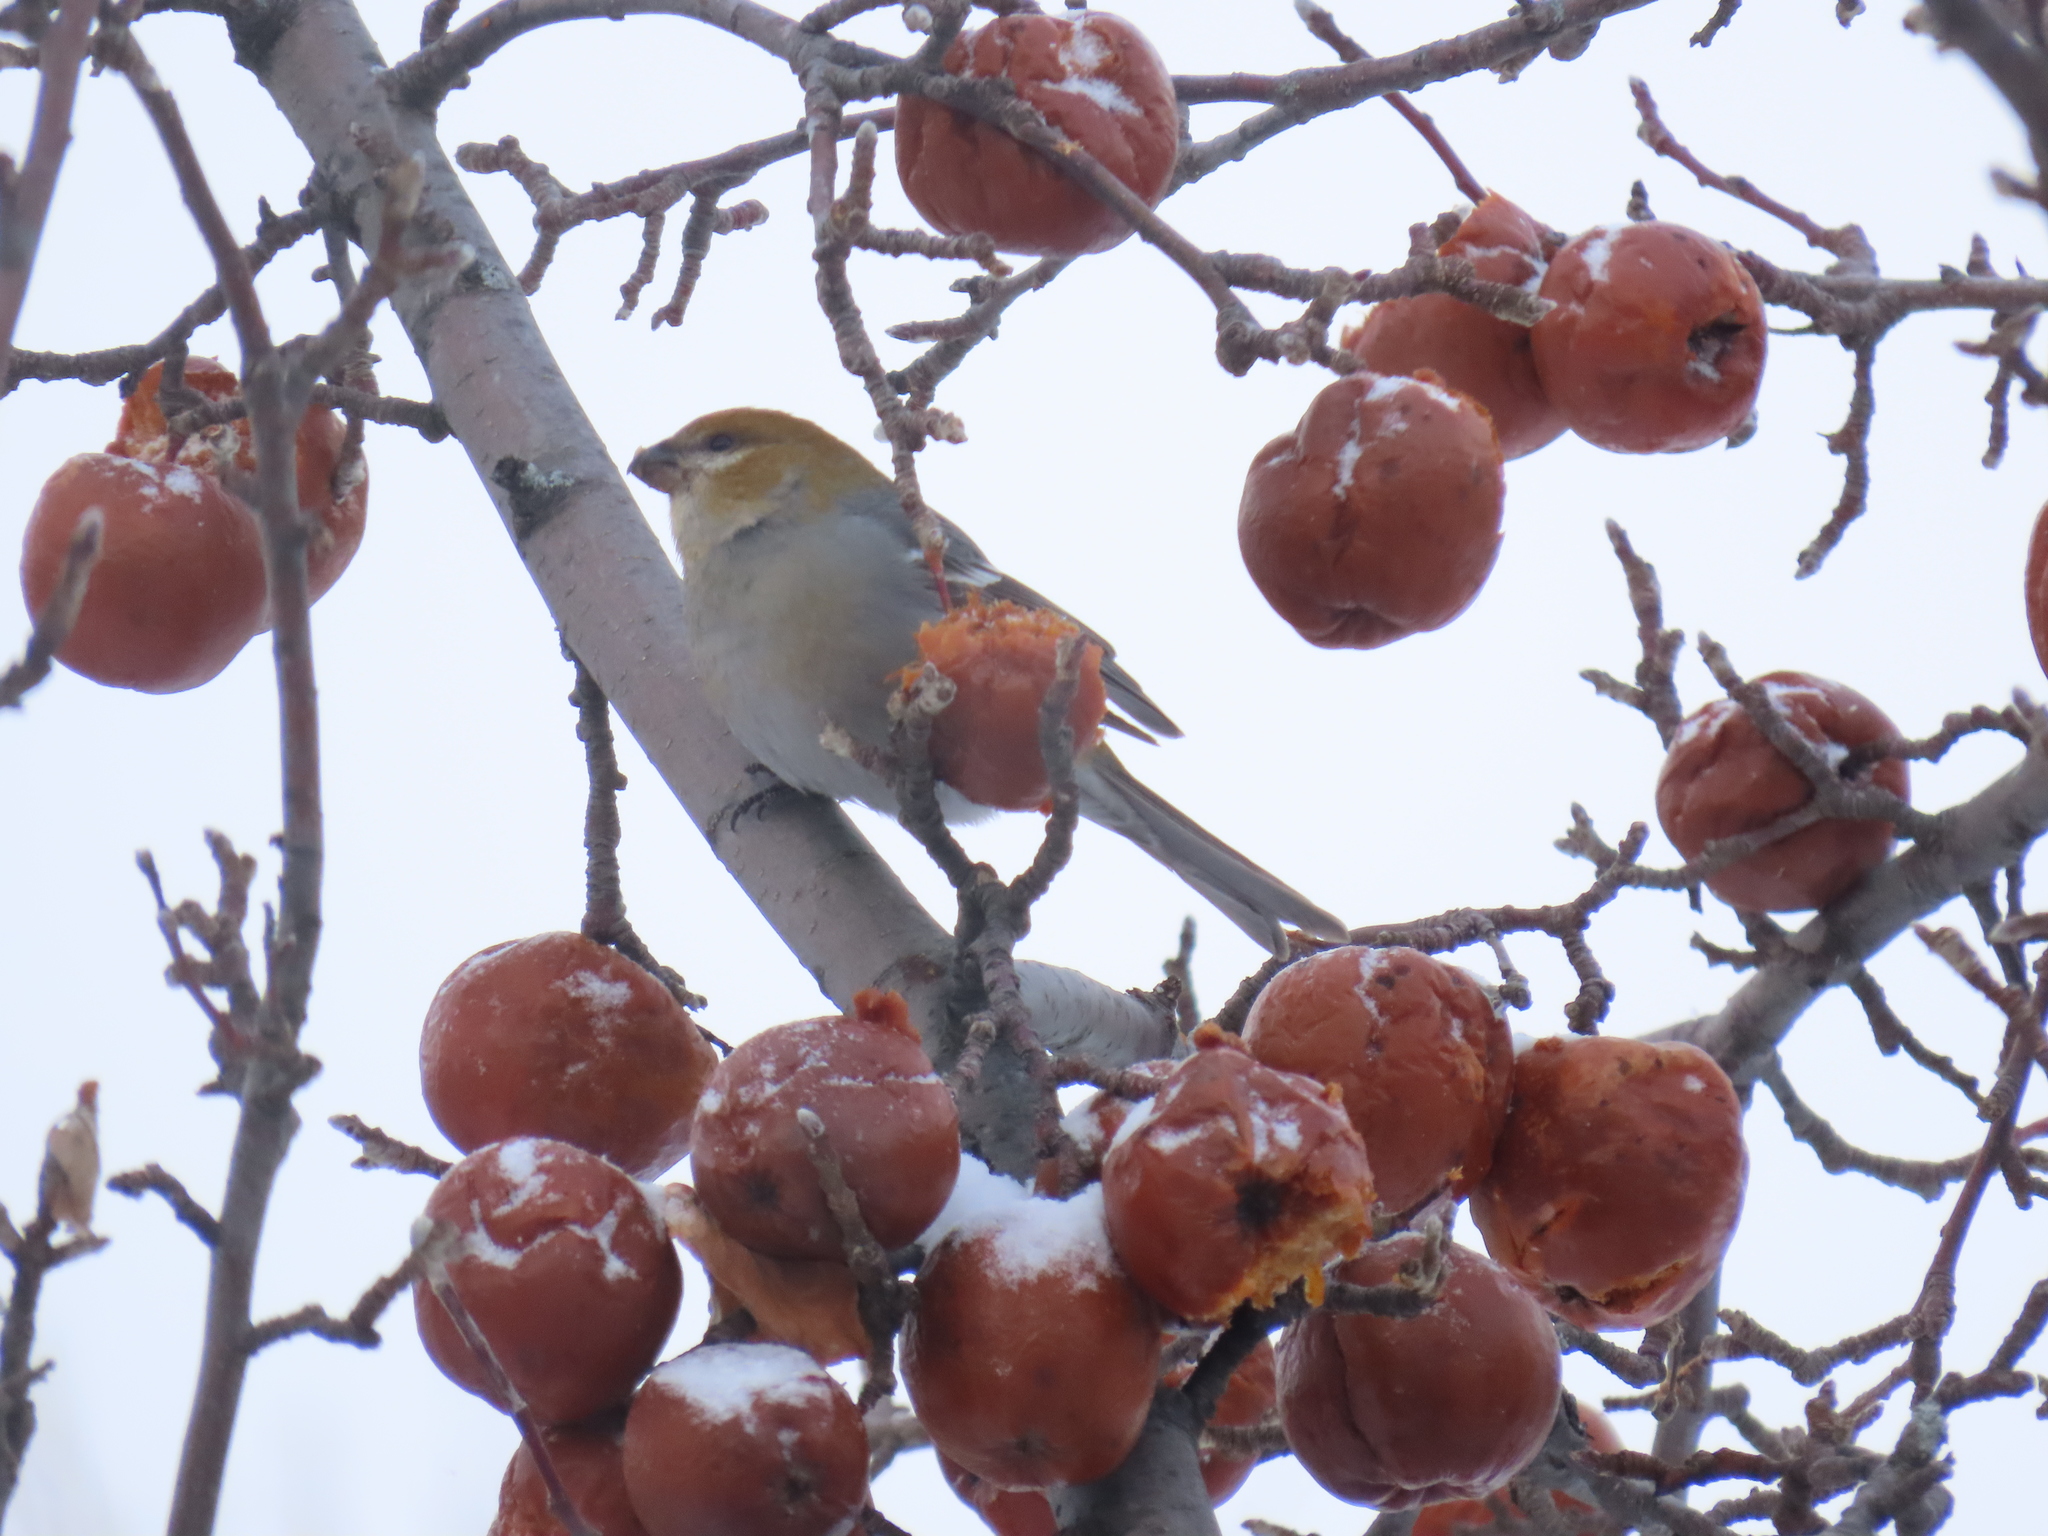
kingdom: Animalia
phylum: Chordata
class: Aves
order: Passeriformes
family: Fringillidae
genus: Pinicola
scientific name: Pinicola enucleator
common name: Pine grosbeak
